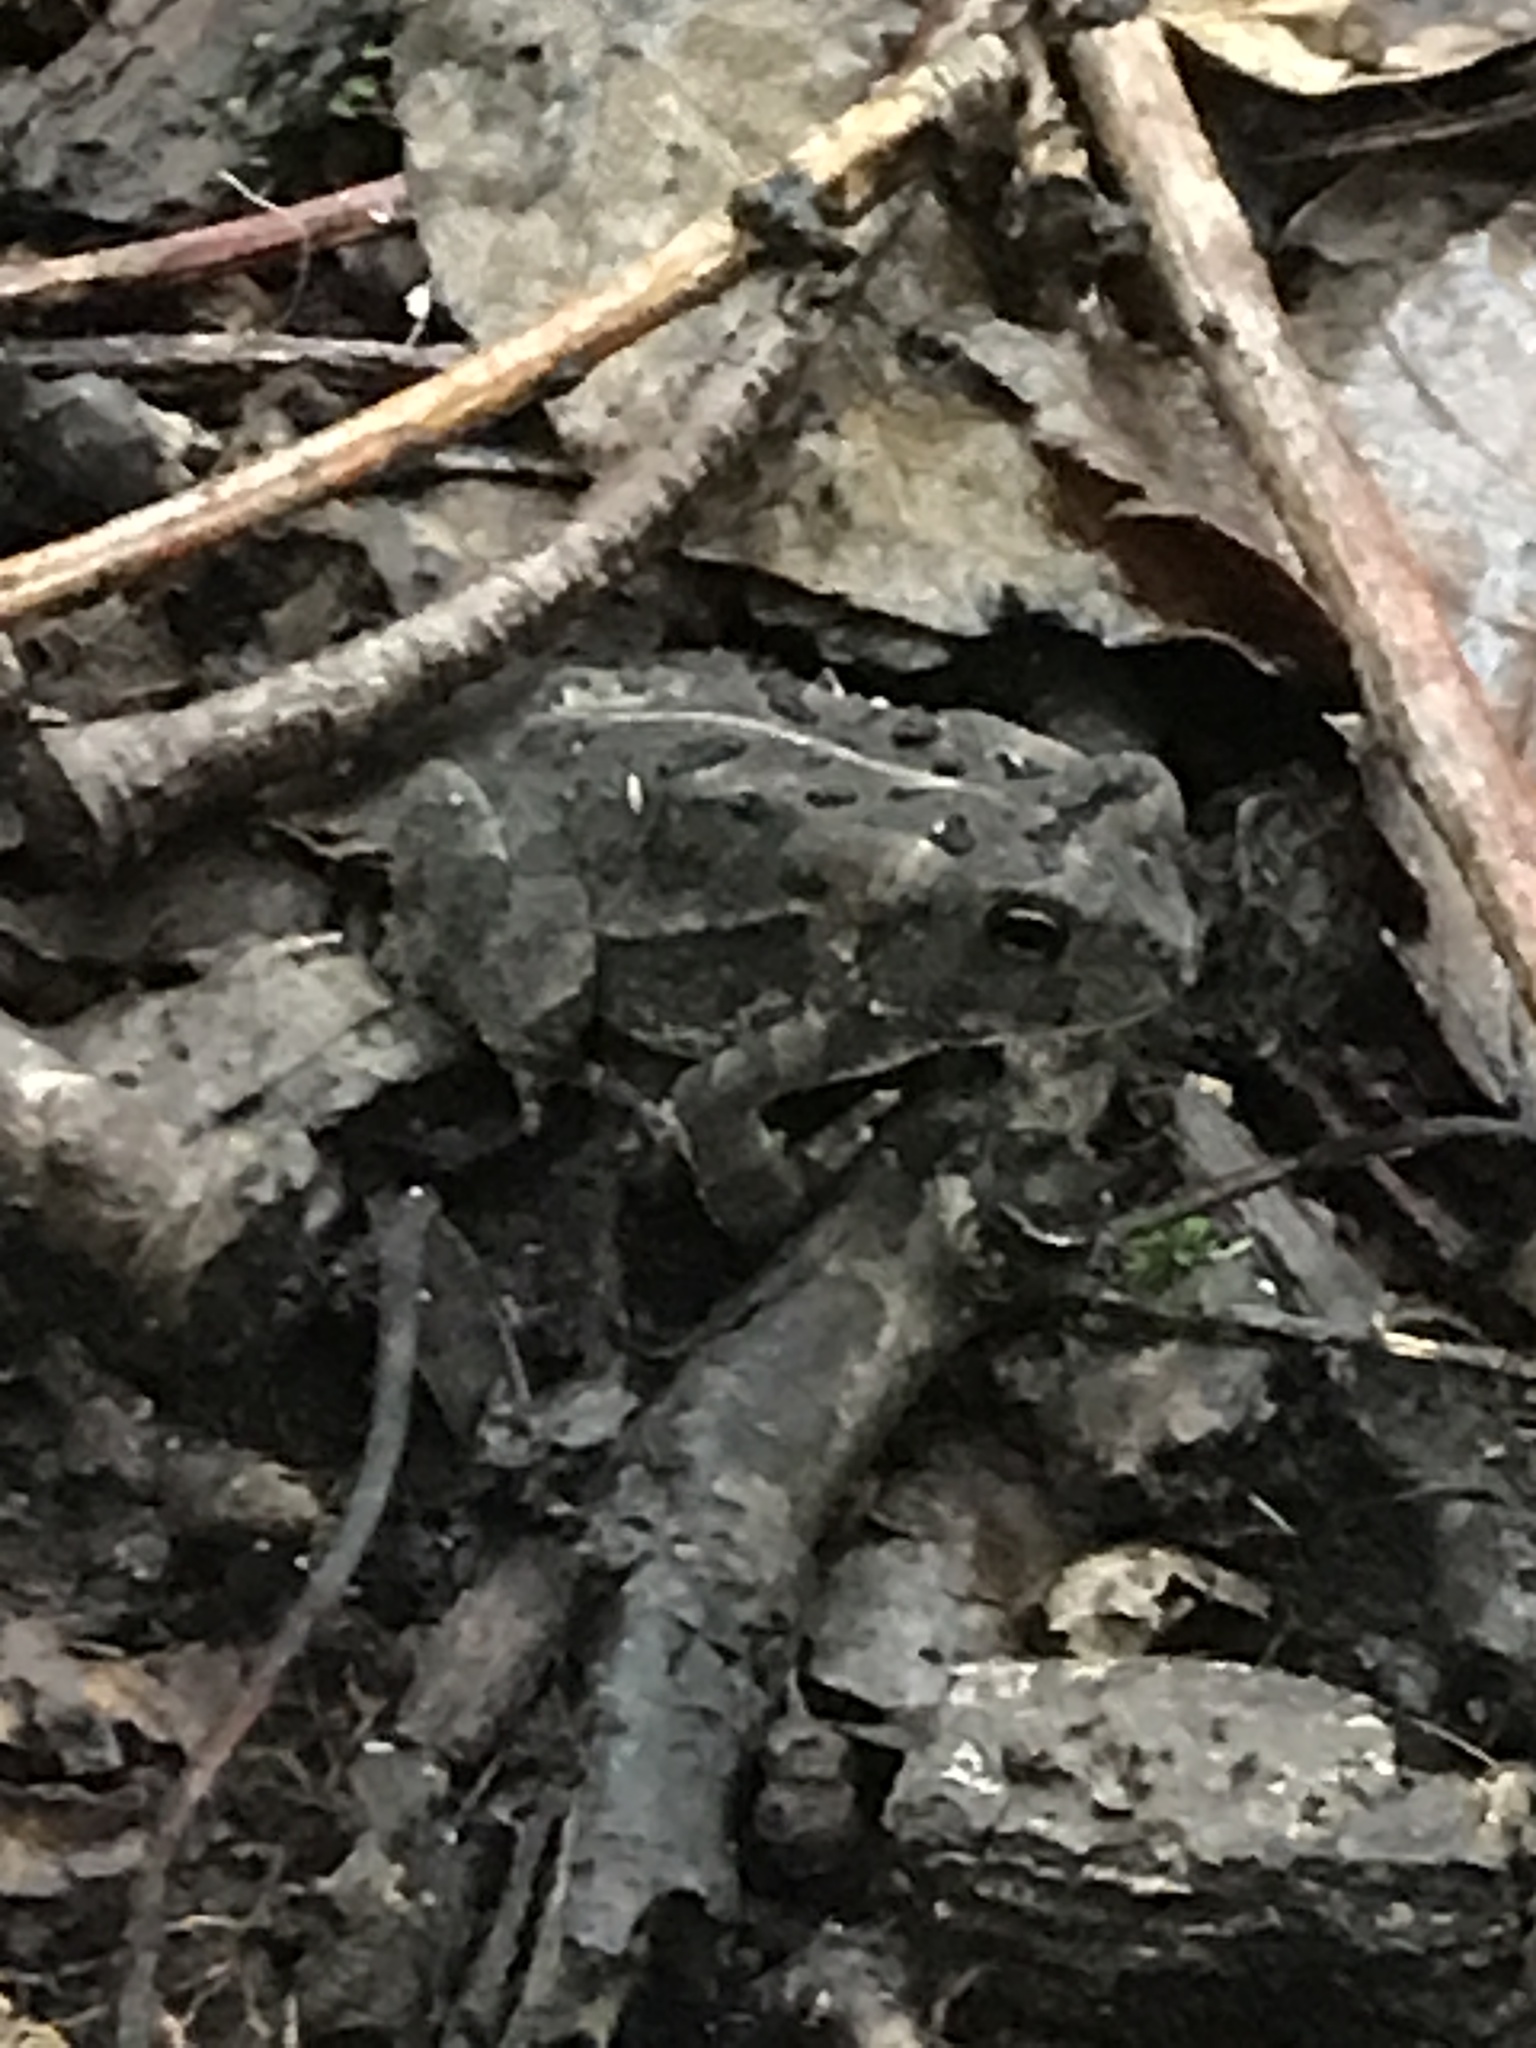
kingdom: Animalia
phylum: Chordata
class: Amphibia
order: Anura
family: Bufonidae
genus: Anaxyrus
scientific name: Anaxyrus fowleri
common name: Fowler's toad
